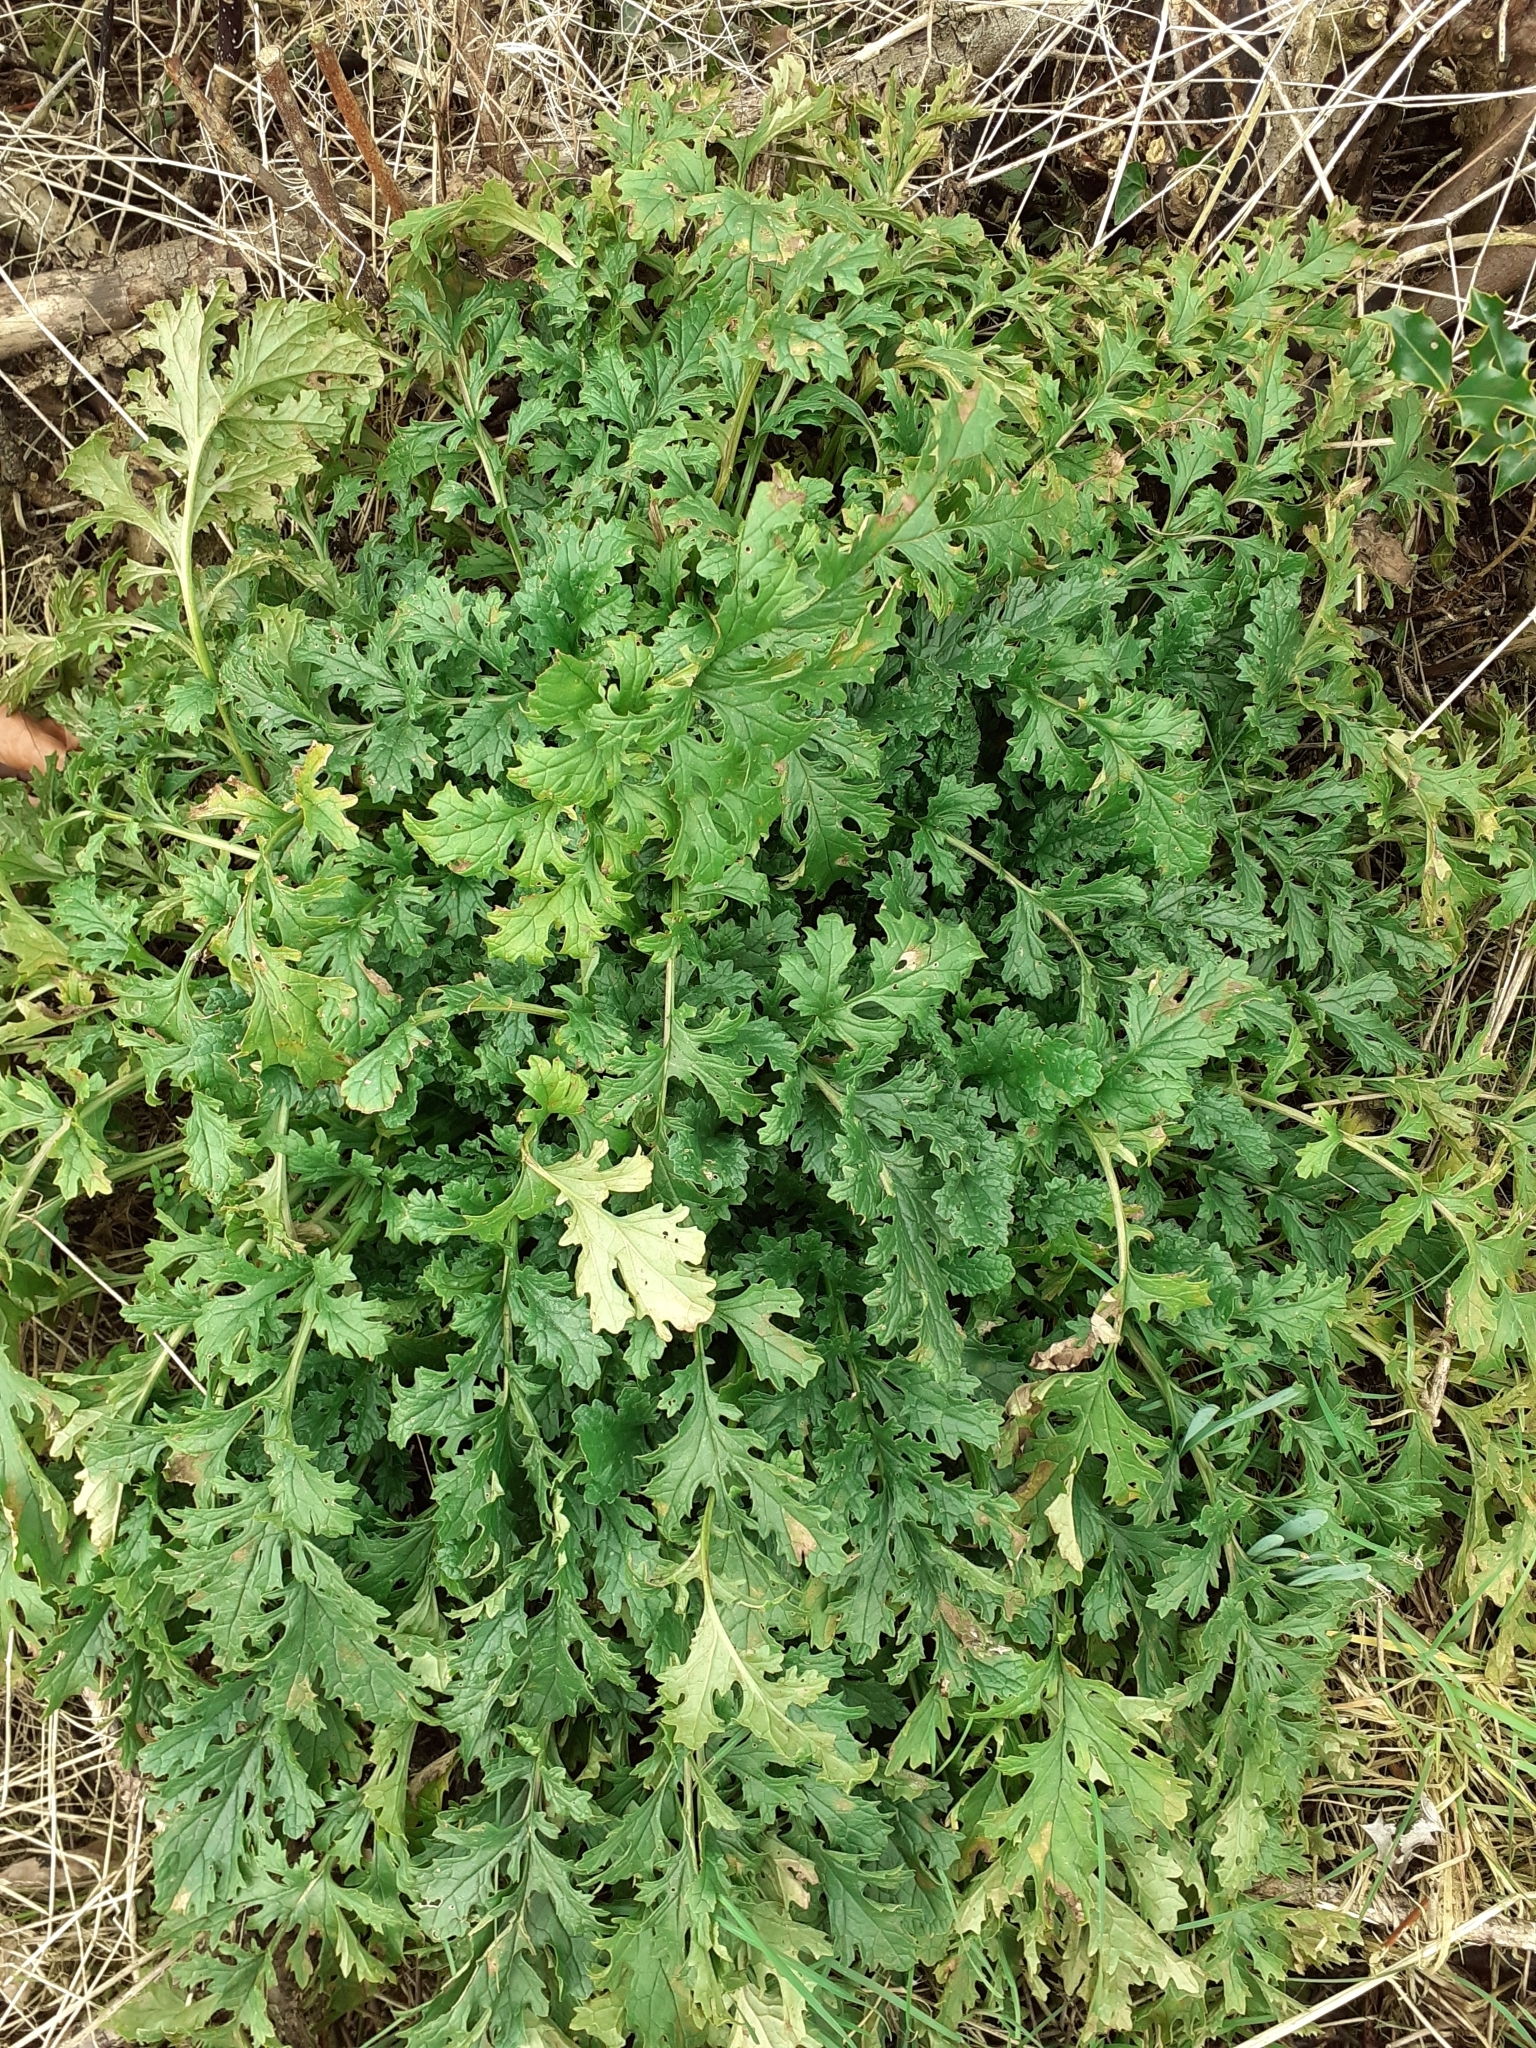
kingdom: Plantae
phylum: Tracheophyta
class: Magnoliopsida
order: Asterales
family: Asteraceae
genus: Jacobaea
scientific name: Jacobaea vulgaris
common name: Stinking willie
